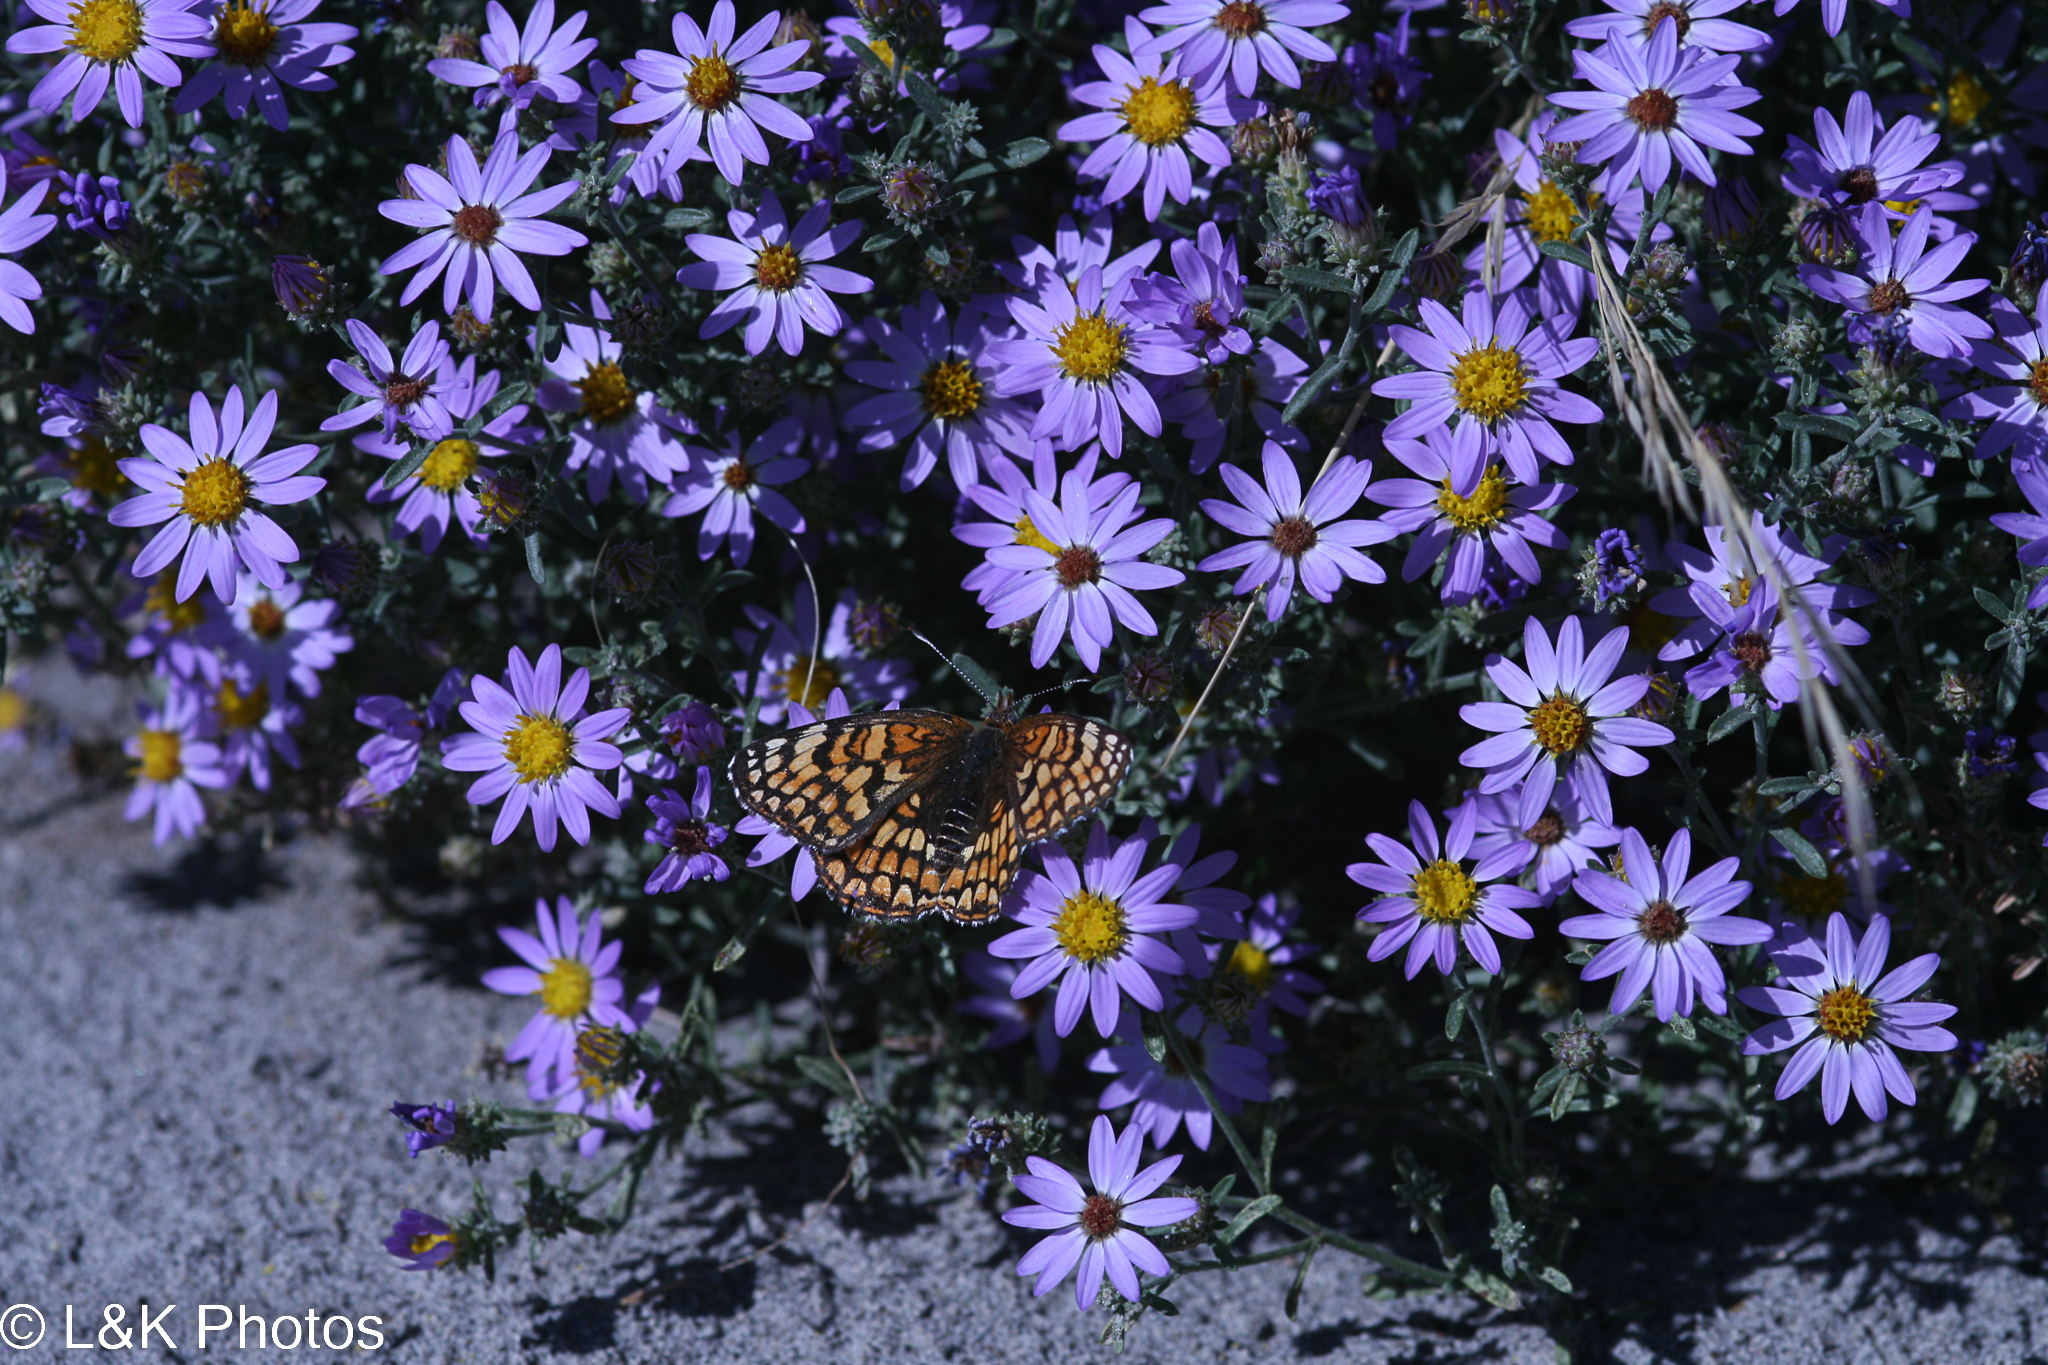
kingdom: Plantae
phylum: Tracheophyta
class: Magnoliopsida
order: Asterales
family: Asteraceae
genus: Dieteria
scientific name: Dieteria canescens
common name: Hoary-aster
